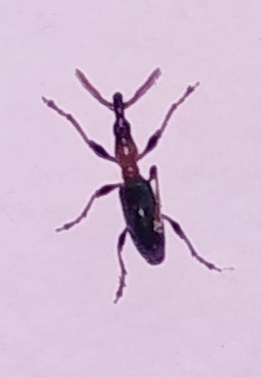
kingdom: Animalia
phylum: Arthropoda
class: Insecta
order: Coleoptera
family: Brentidae
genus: Cylas
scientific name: Cylas formicarius
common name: Sweetpotato weevil
